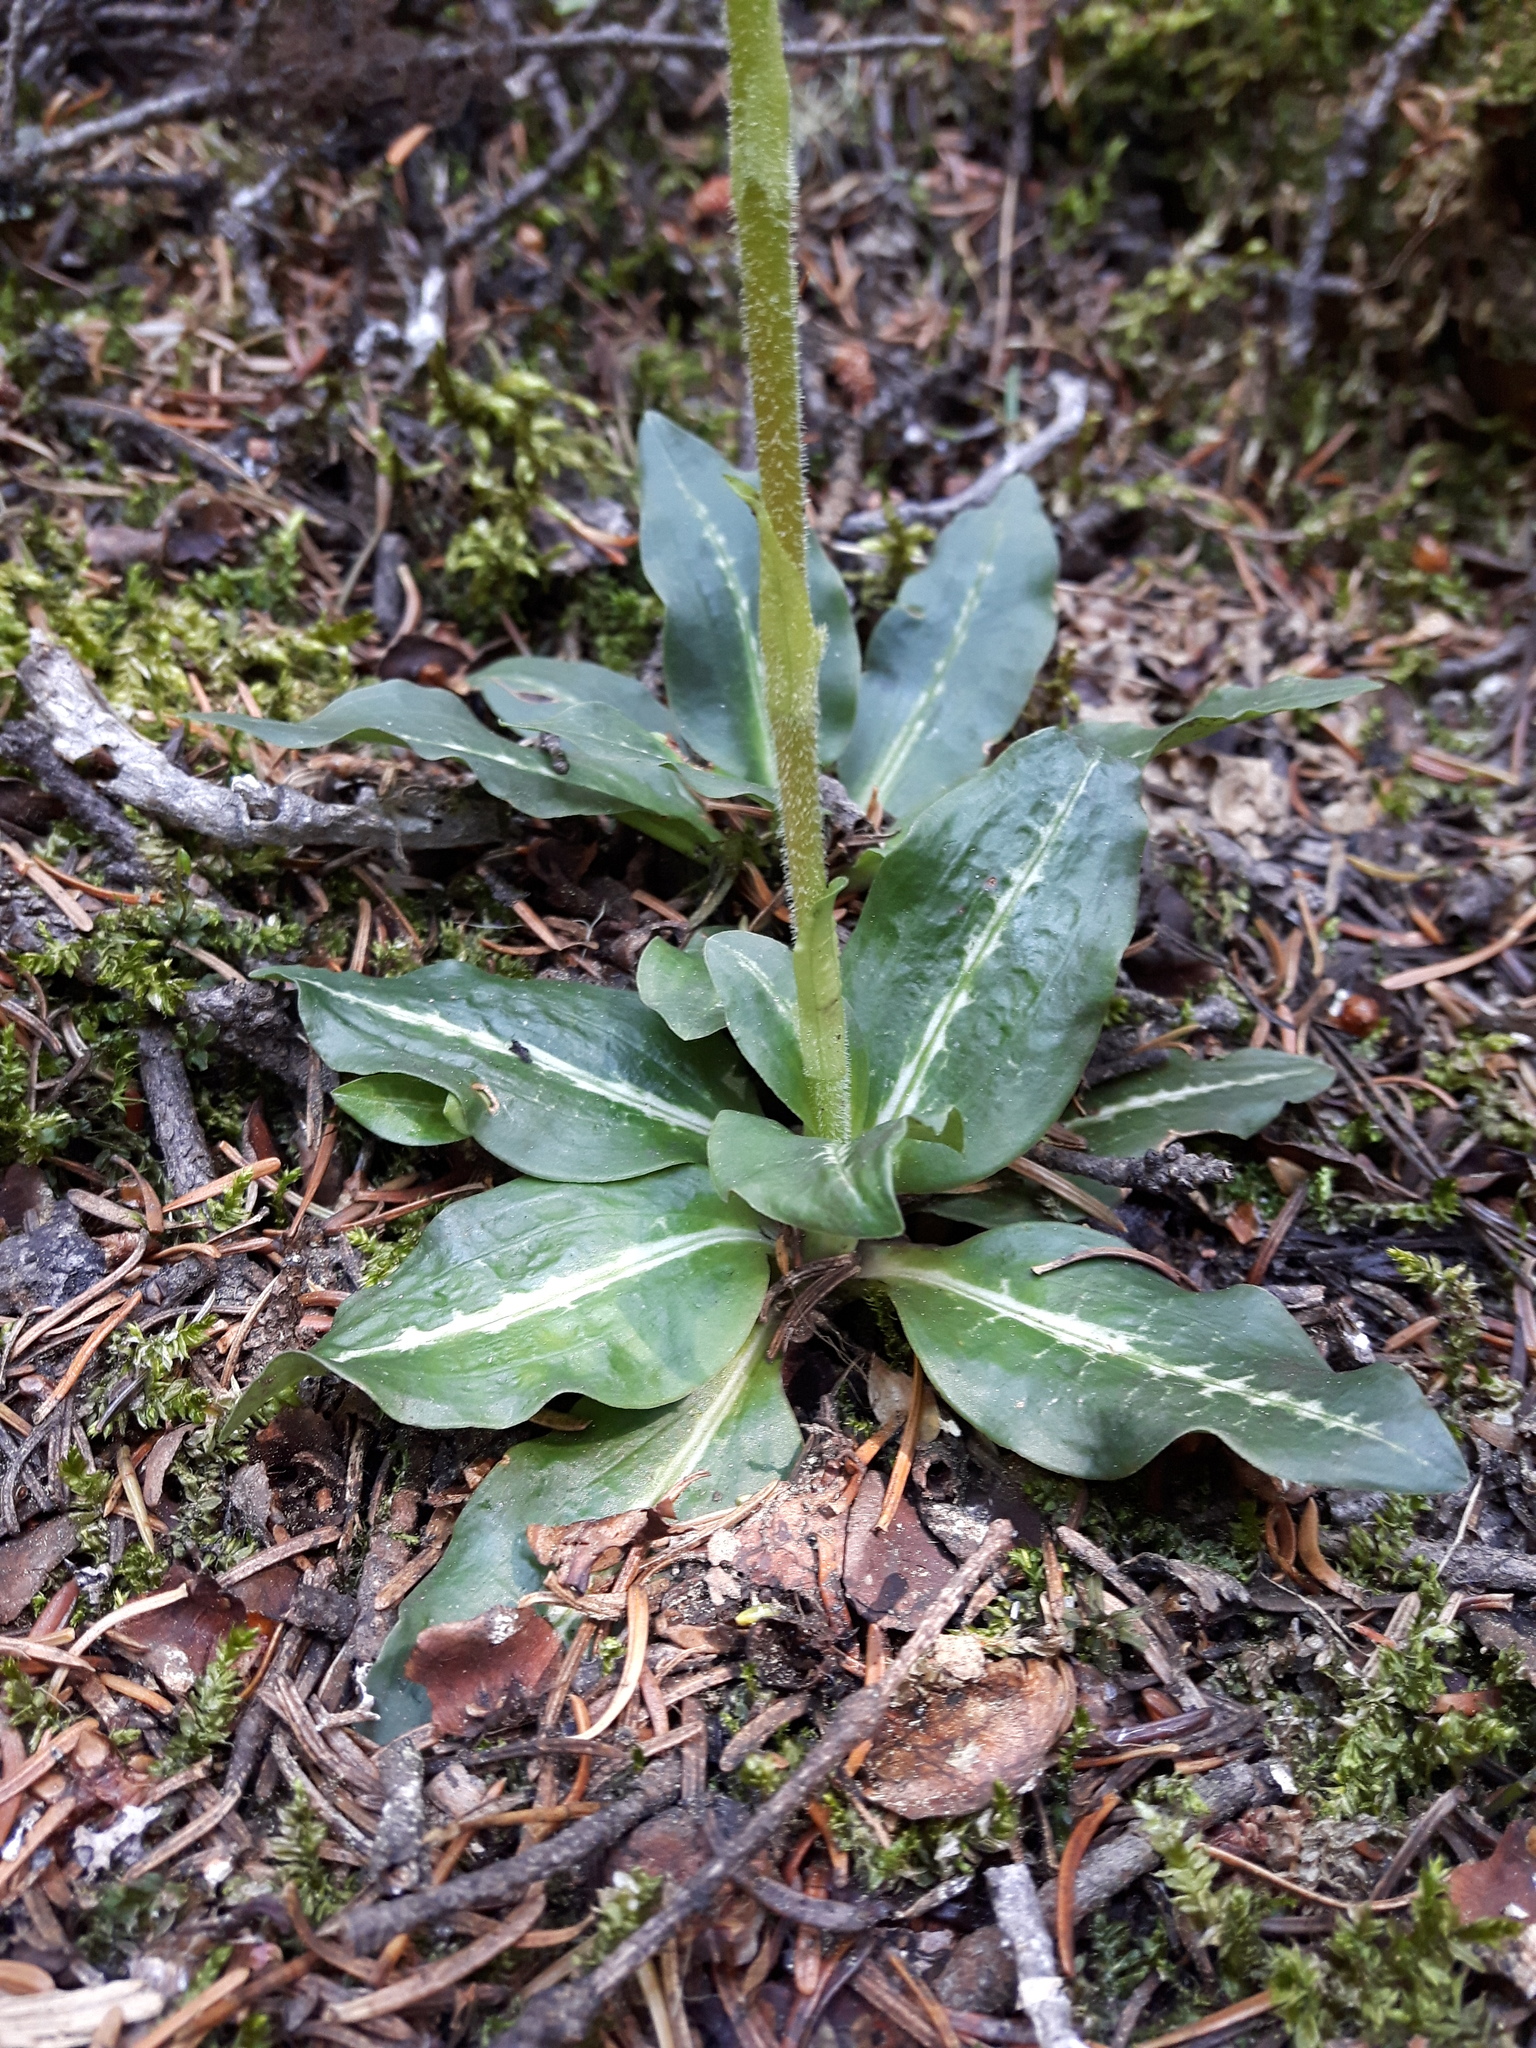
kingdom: Plantae
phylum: Tracheophyta
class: Liliopsida
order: Asparagales
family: Orchidaceae
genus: Goodyera
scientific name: Goodyera oblongifolia
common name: Giant rattlesnake-plantain
